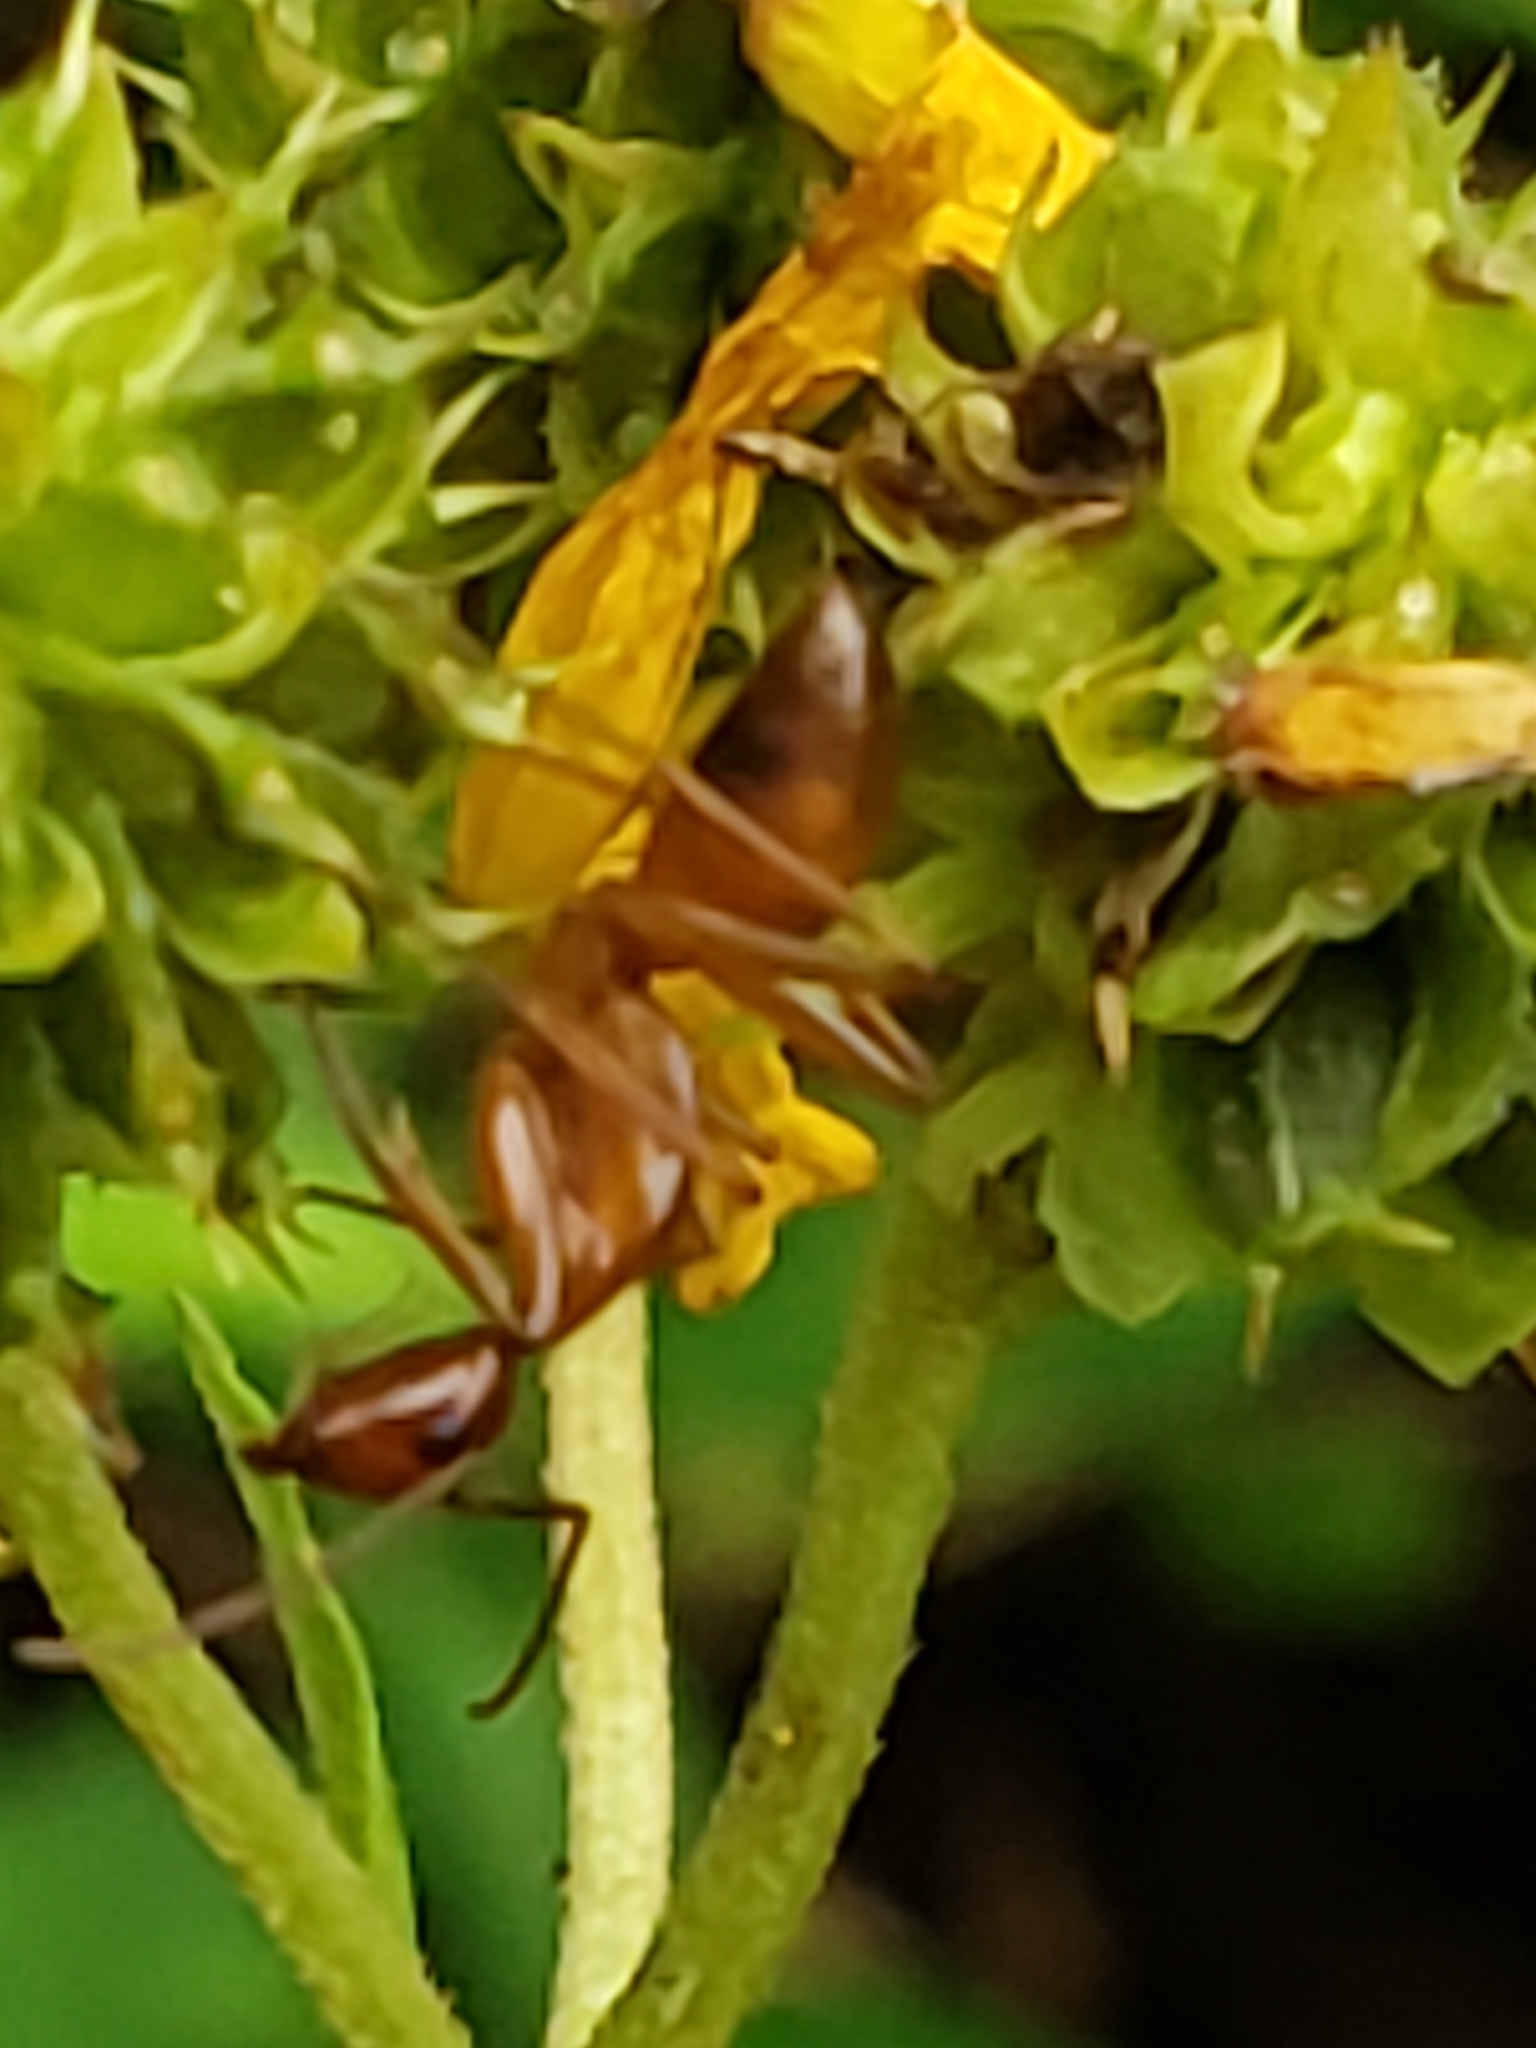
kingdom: Animalia
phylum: Arthropoda
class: Insecta
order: Hymenoptera
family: Formicidae
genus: Camponotus
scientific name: Camponotus castaneus
